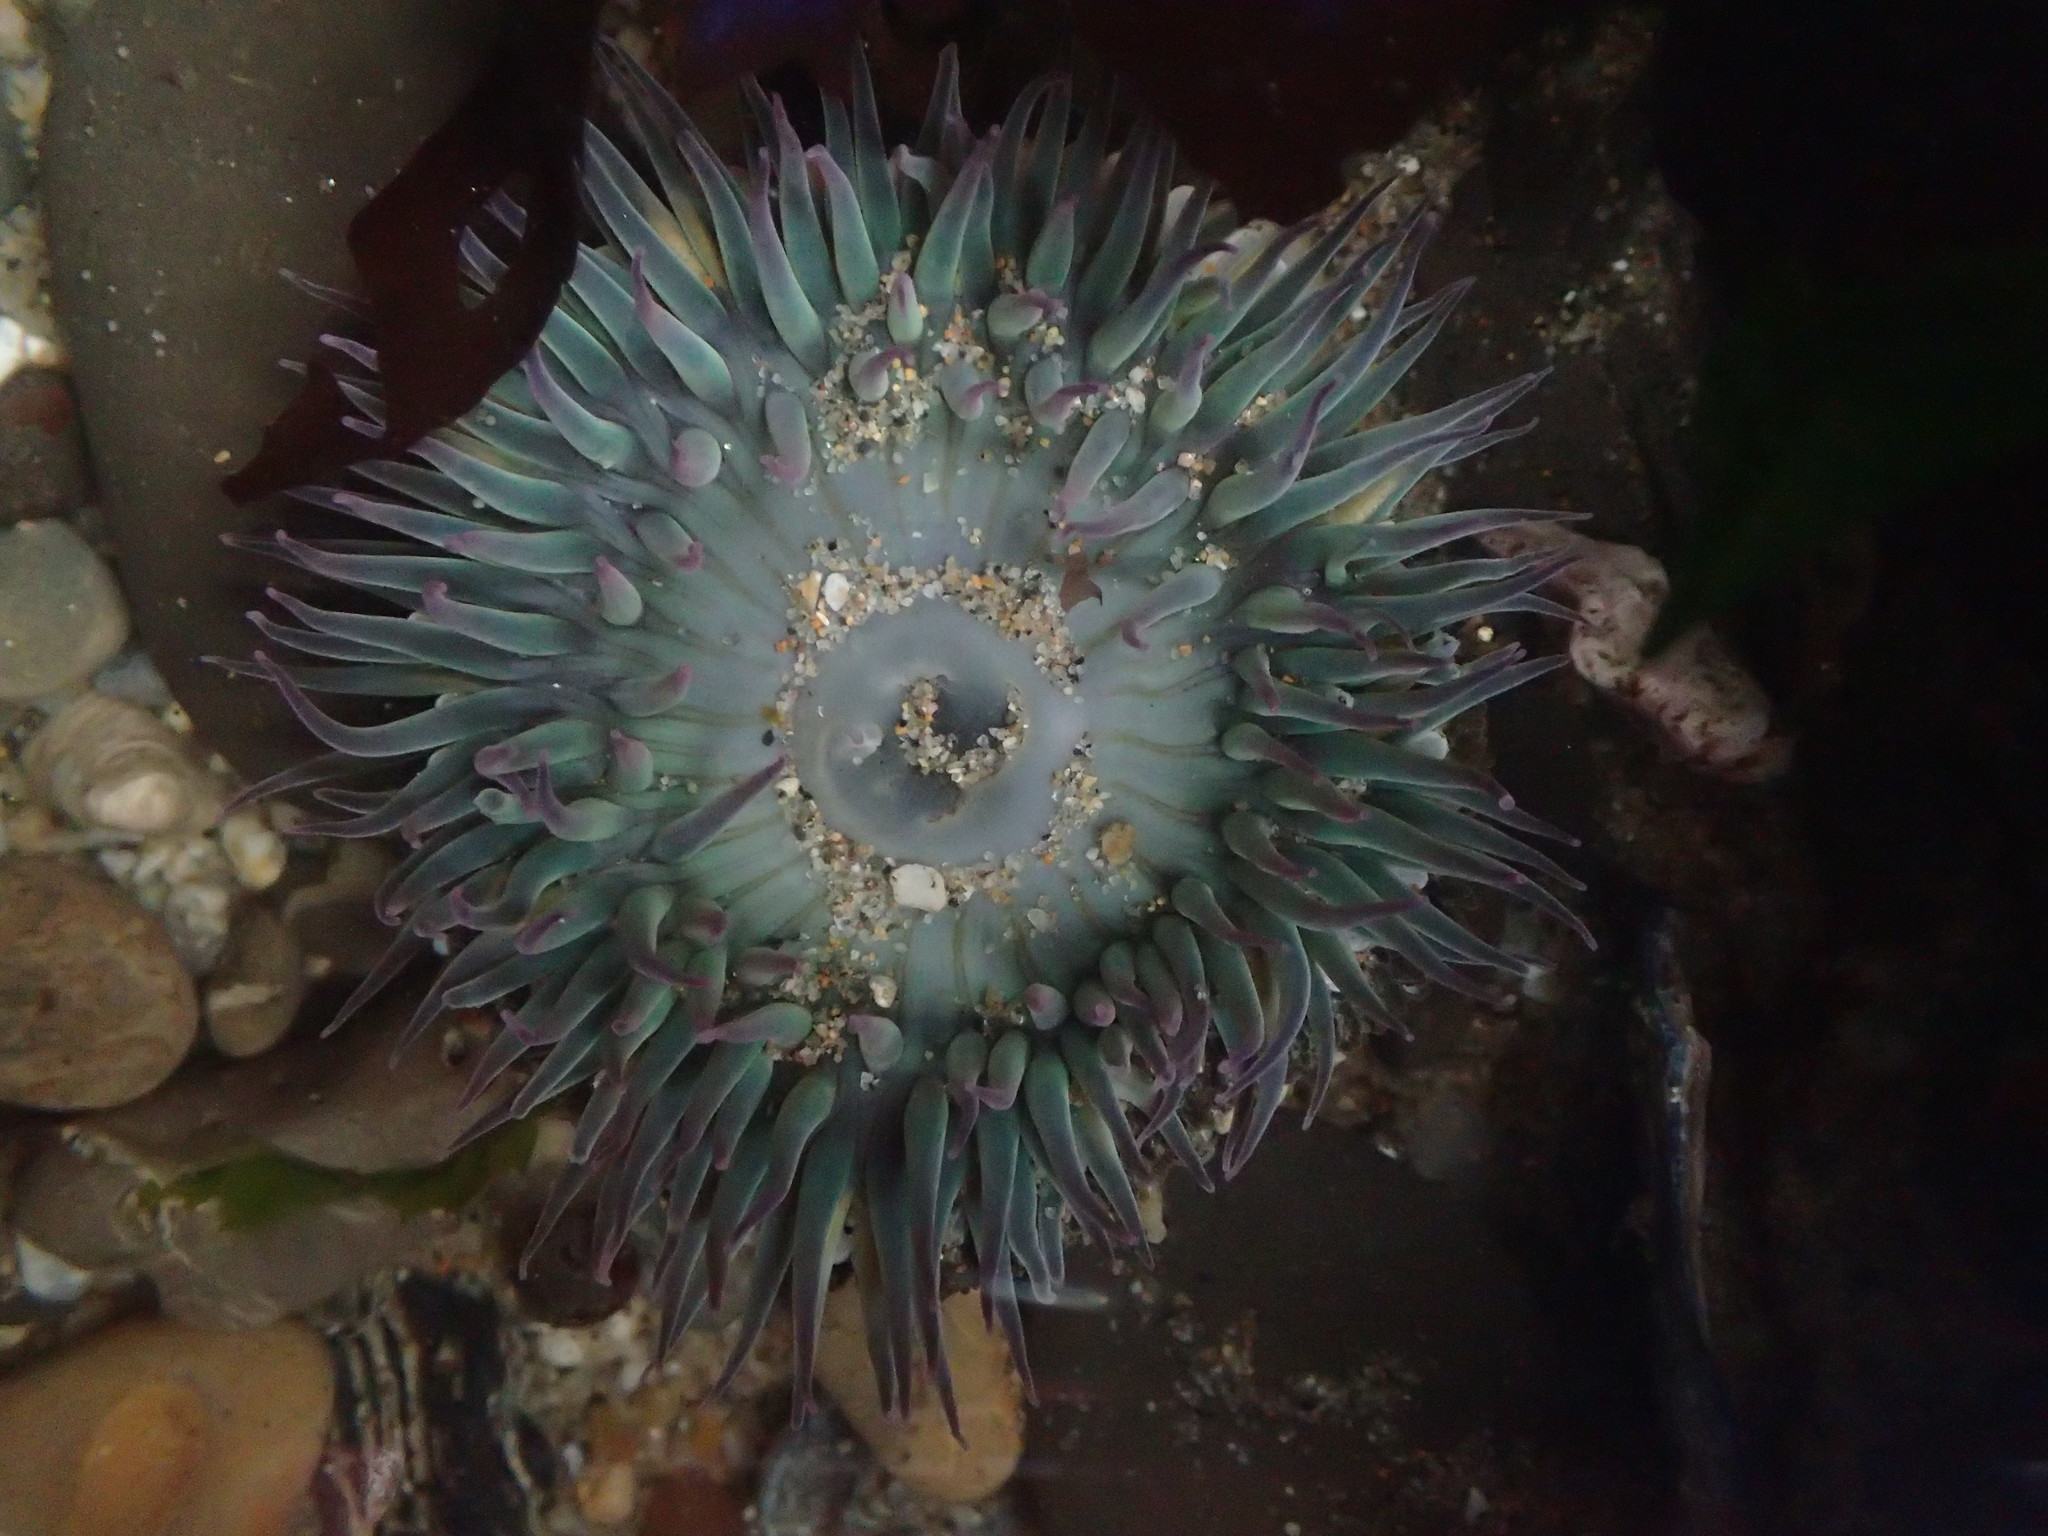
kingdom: Animalia
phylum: Cnidaria
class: Anthozoa
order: Actiniaria
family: Actiniidae
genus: Anthopleura
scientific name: Anthopleura sola
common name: Sun anemone
